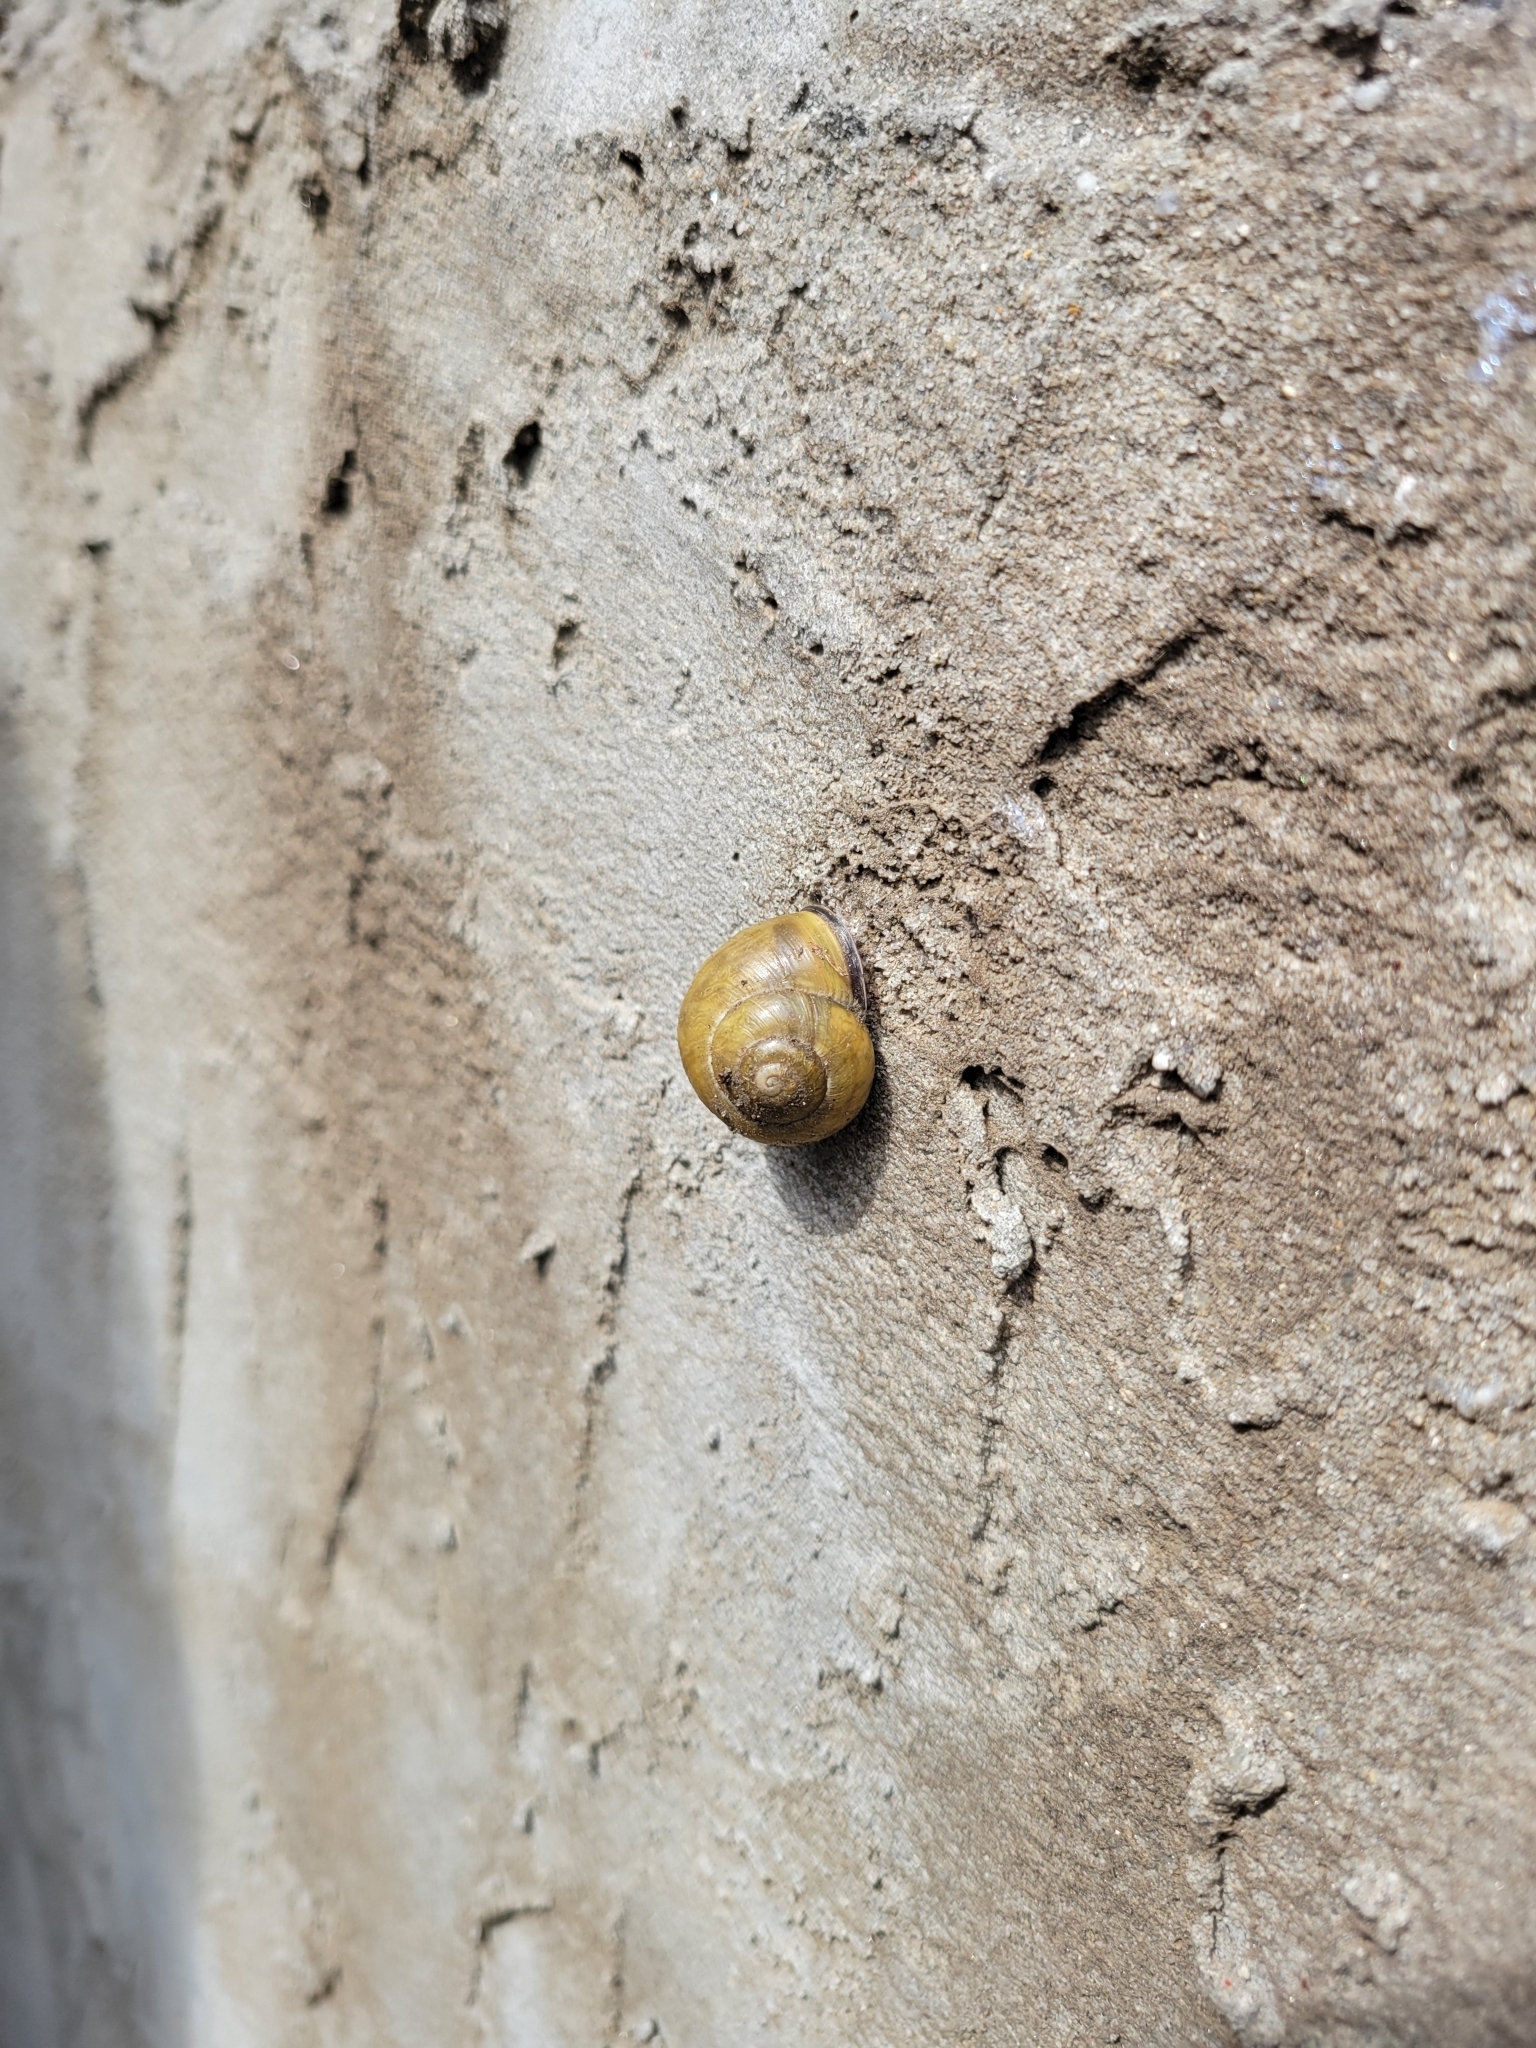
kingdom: Animalia
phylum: Mollusca
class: Gastropoda
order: Stylommatophora
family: Helicidae
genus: Cepaea
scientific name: Cepaea nemoralis
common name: Grovesnail
